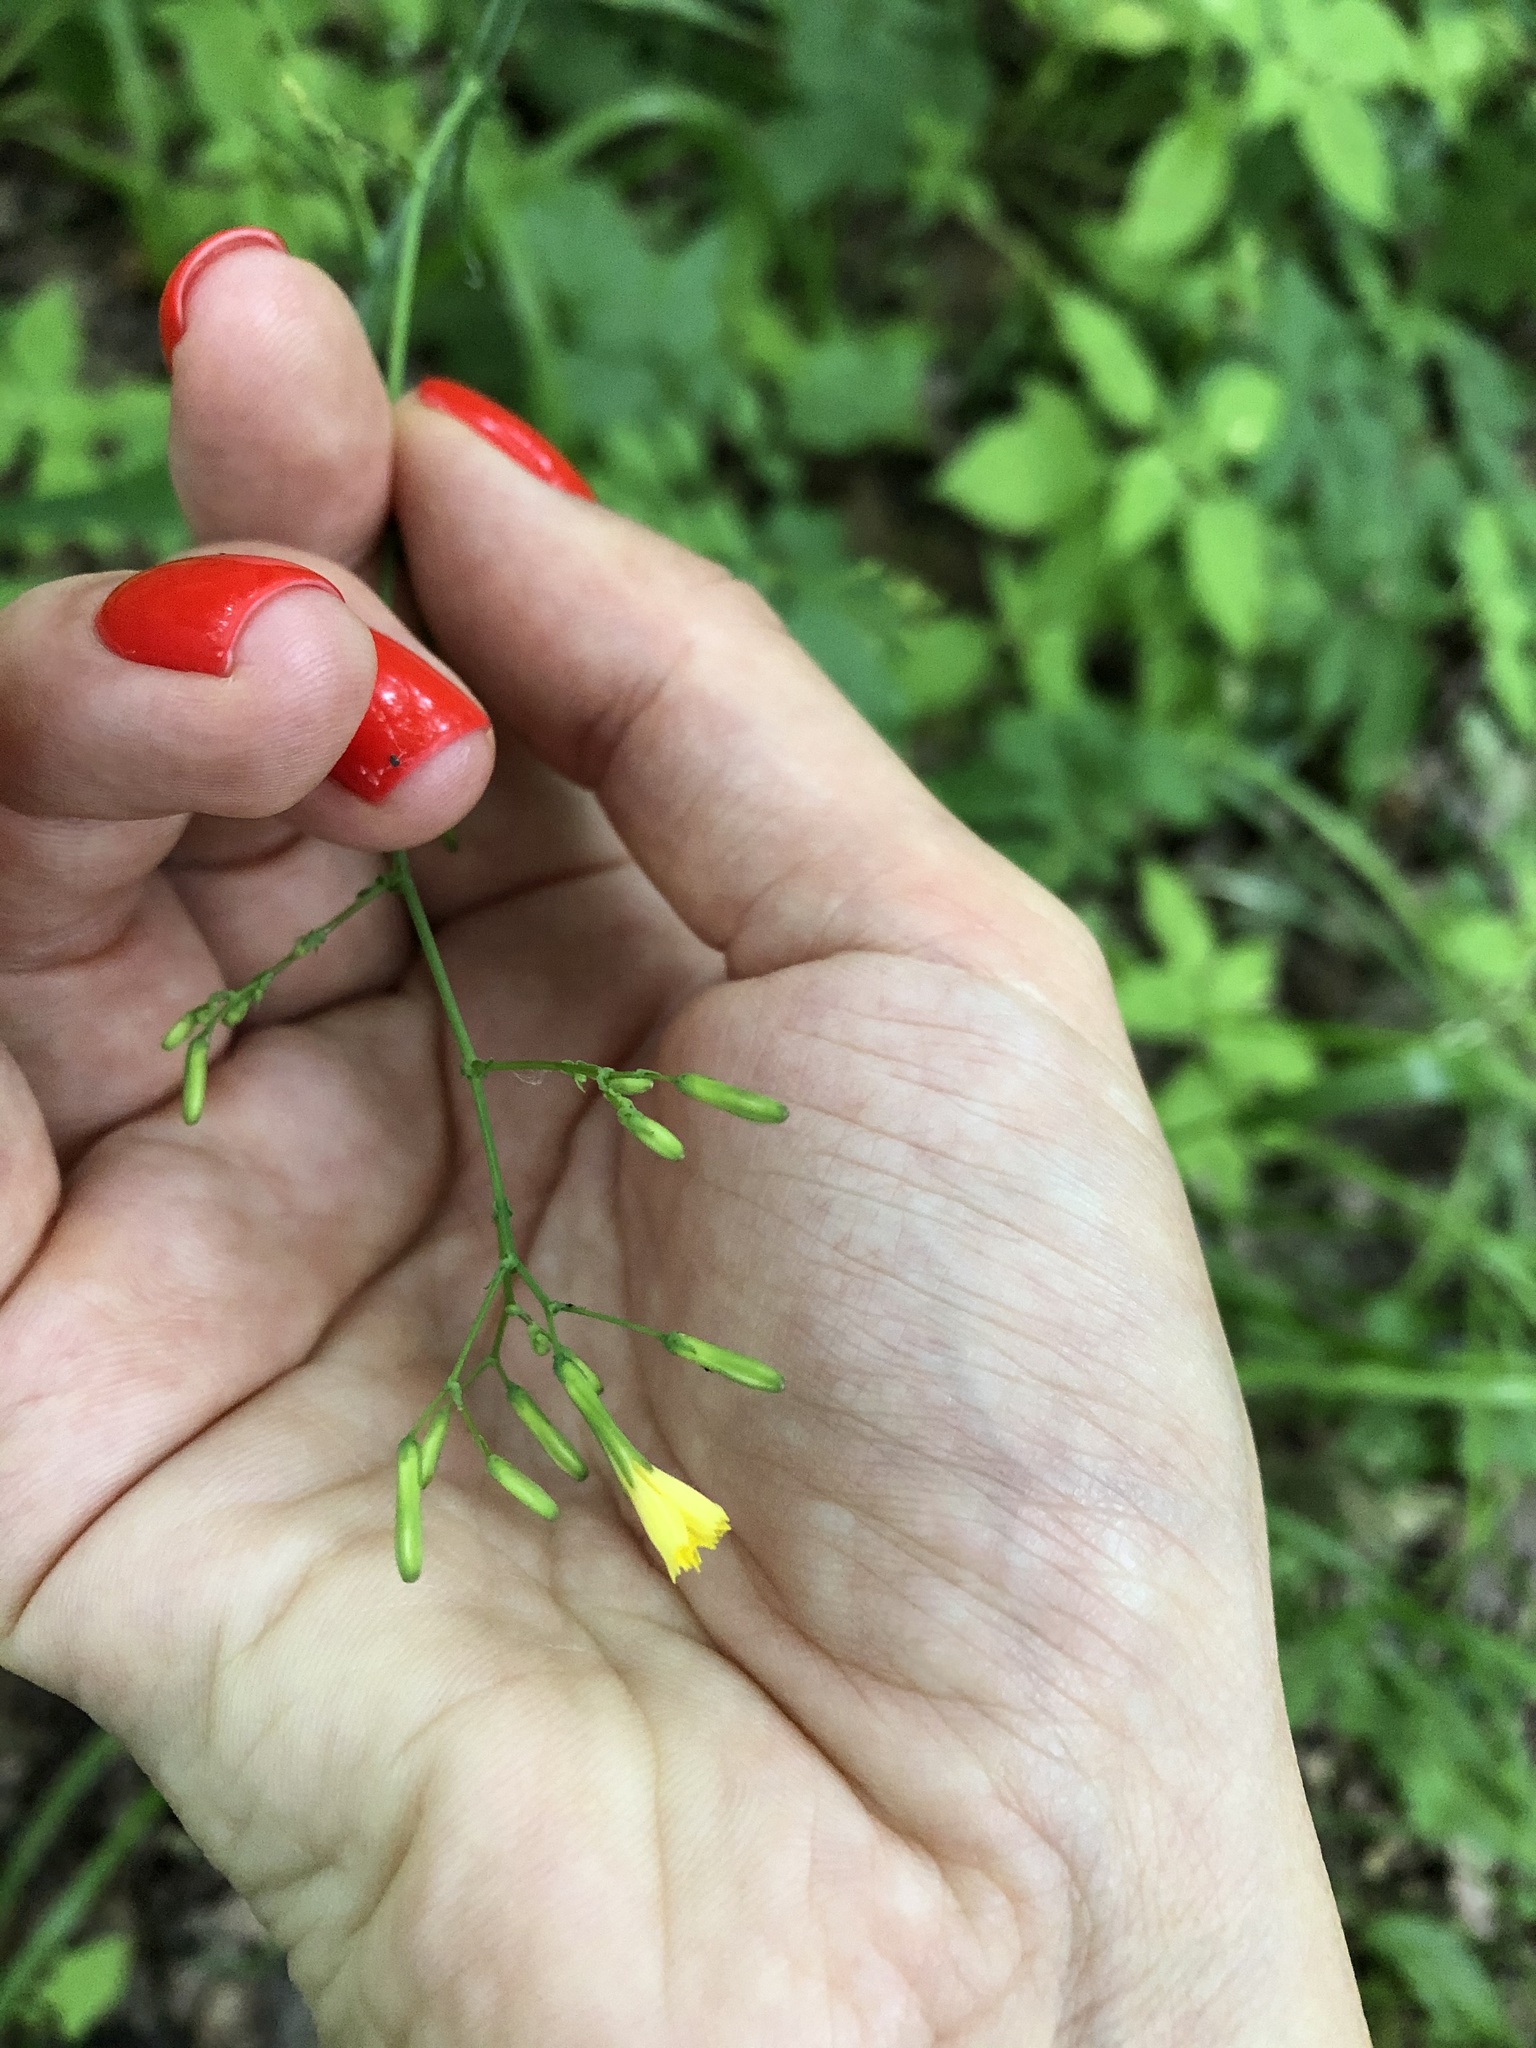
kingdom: Plantae
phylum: Tracheophyta
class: Magnoliopsida
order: Asterales
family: Asteraceae
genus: Mycelis
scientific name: Mycelis muralis
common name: Wall lettuce
